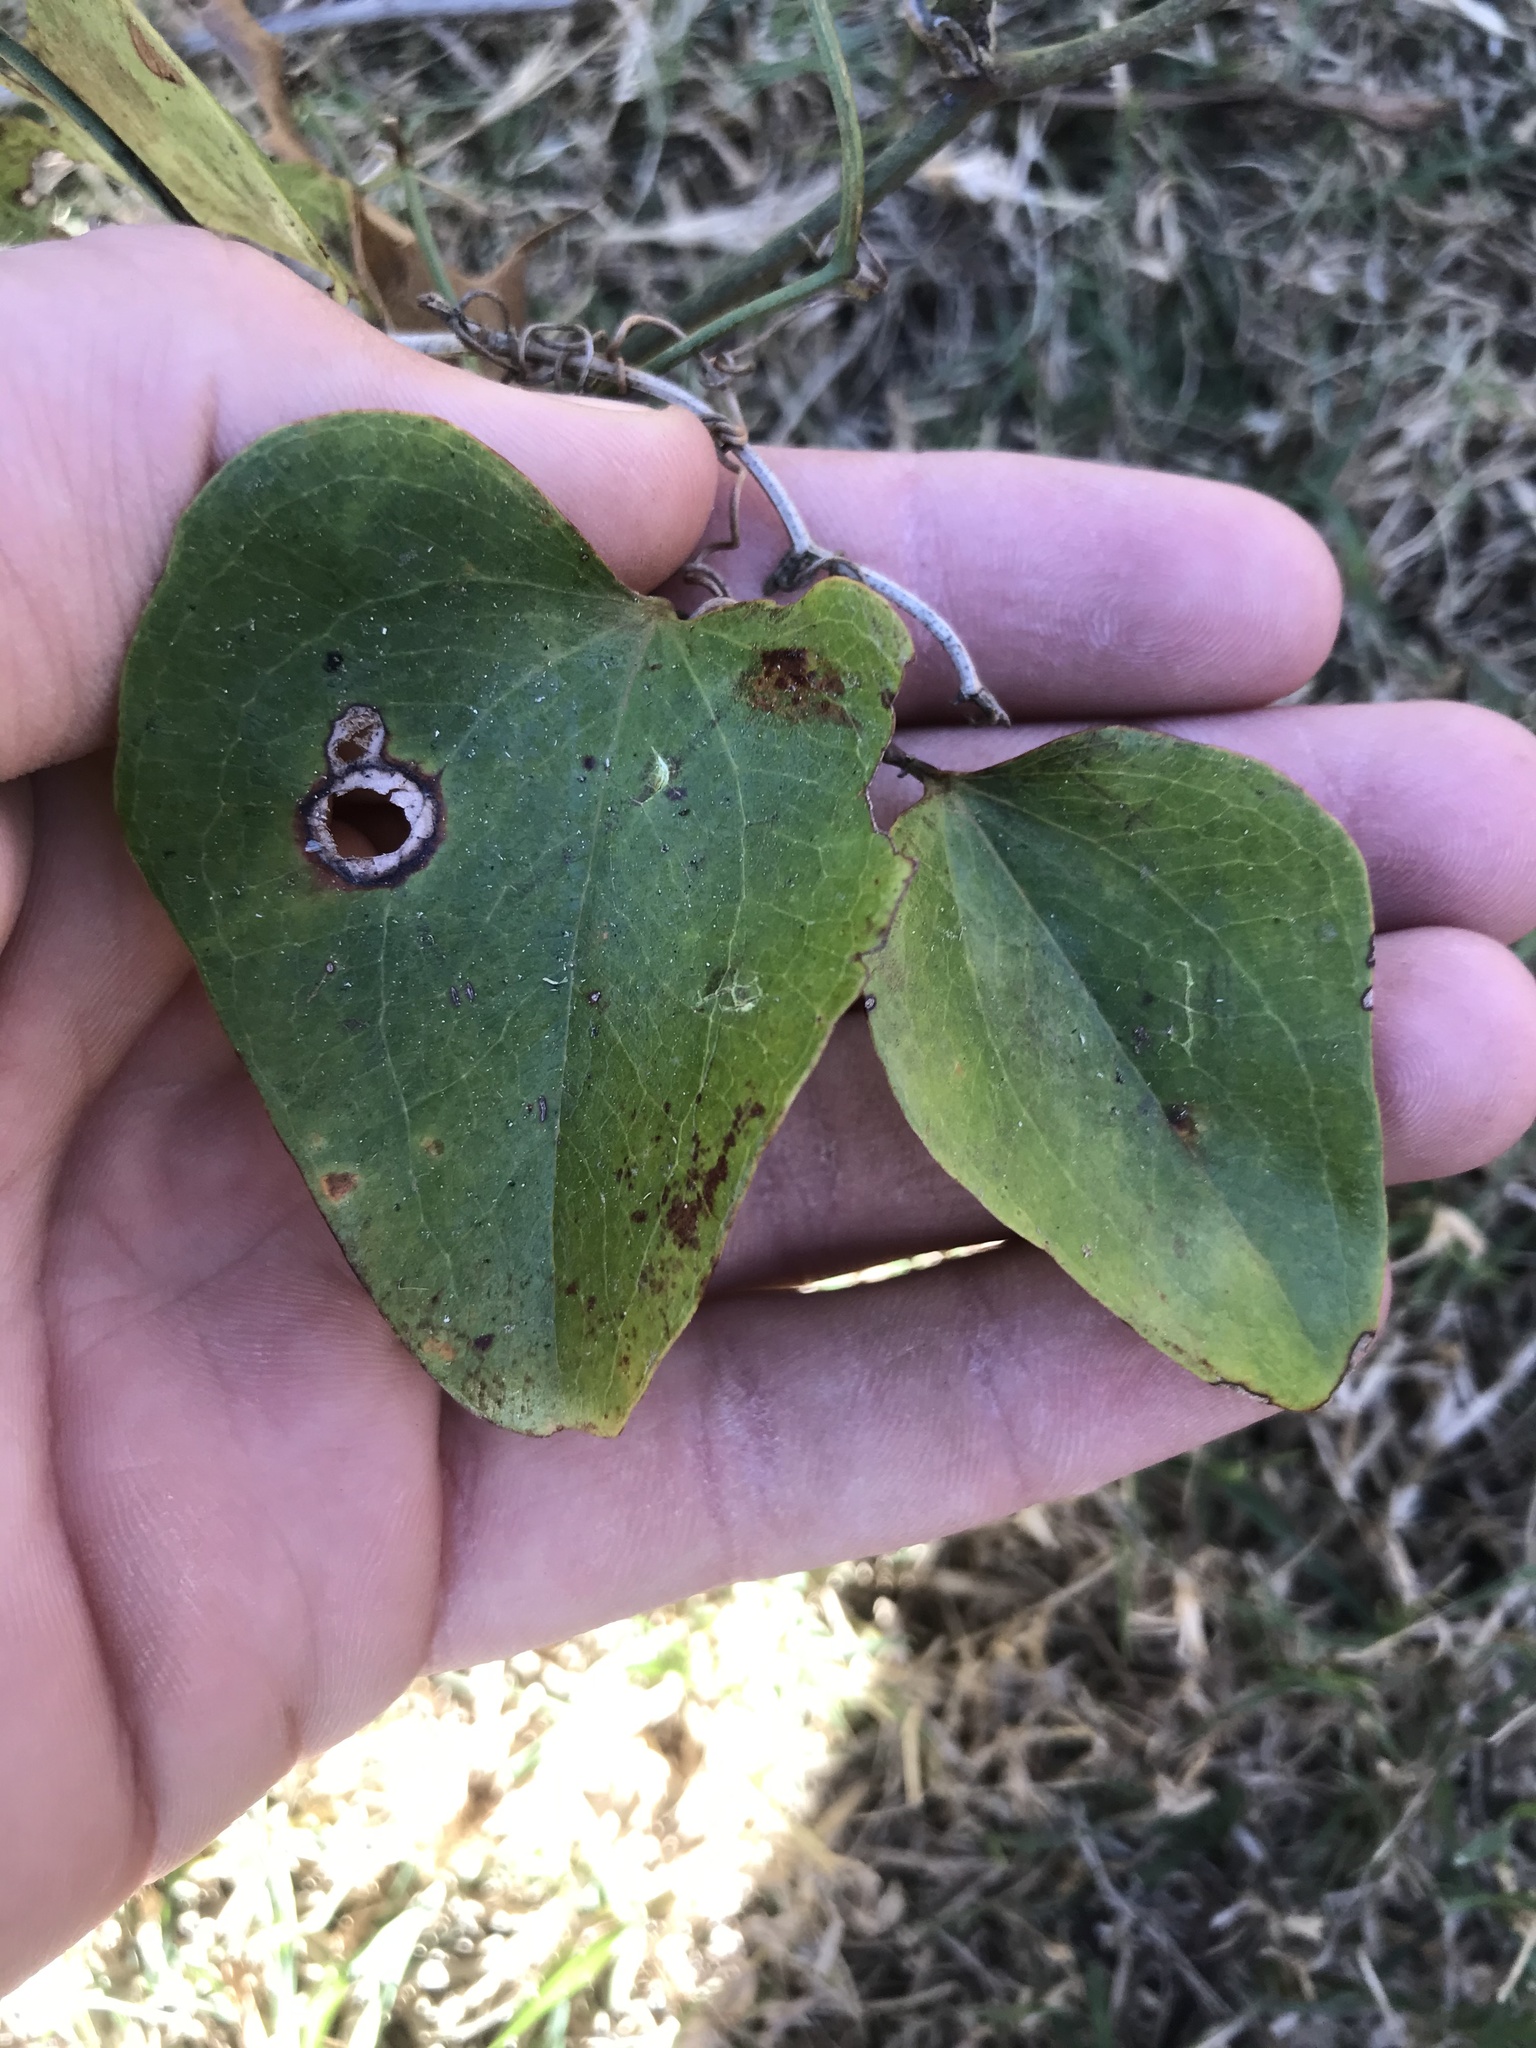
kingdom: Plantae
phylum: Tracheophyta
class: Liliopsida
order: Liliales
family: Smilacaceae
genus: Smilax
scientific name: Smilax glauca
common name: Cat greenbrier
